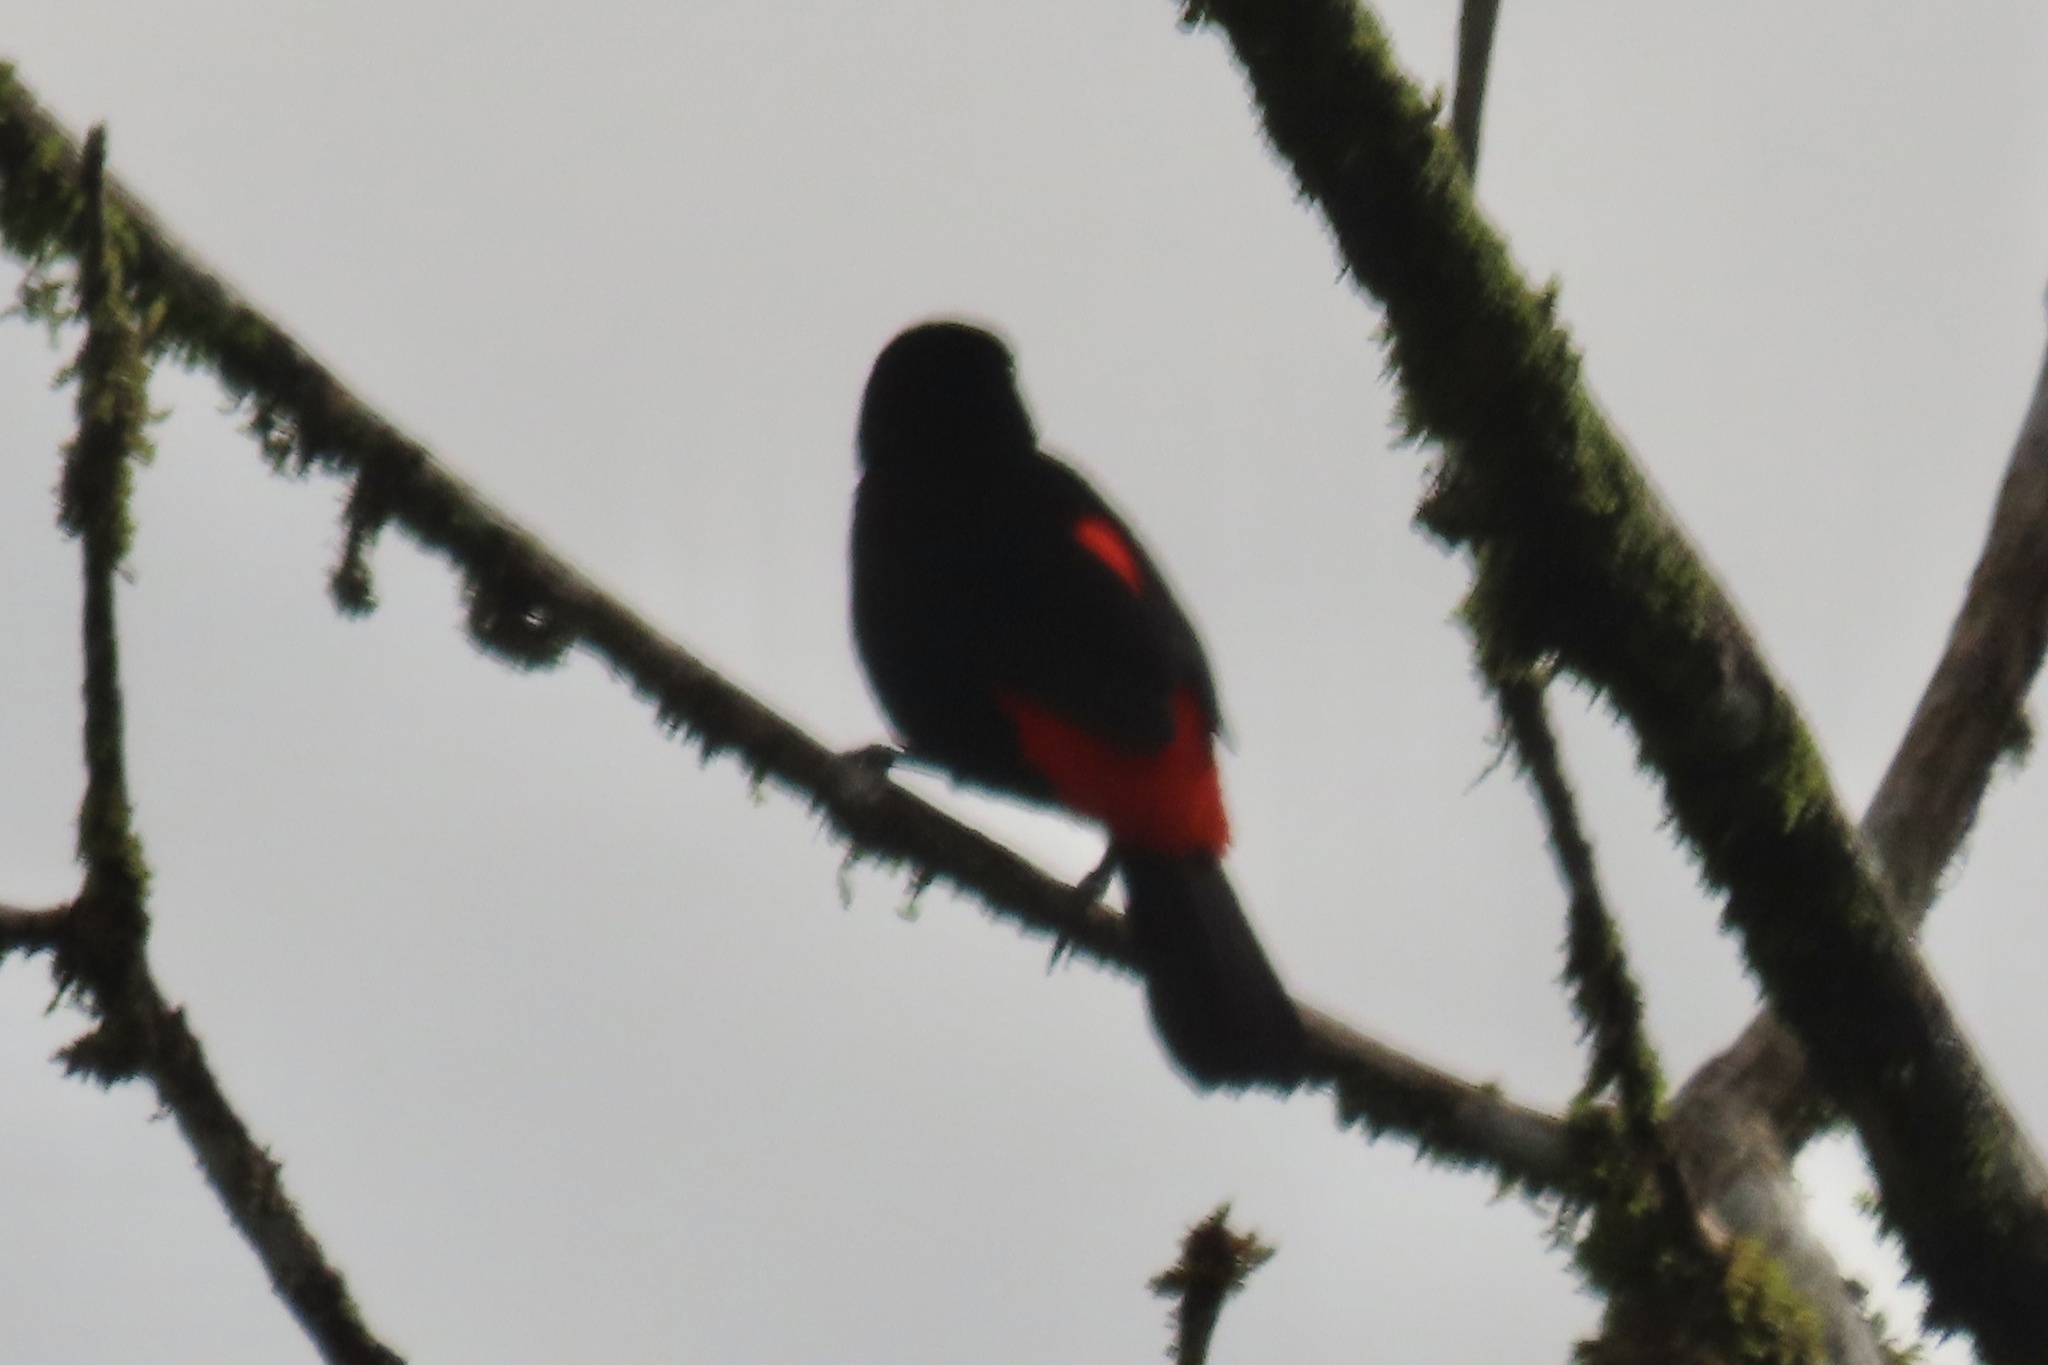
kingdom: Animalia
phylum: Chordata
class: Aves
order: Passeriformes
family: Thraupidae
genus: Ramphocelus
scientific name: Ramphocelus passerinii
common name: Passerini's tanager
